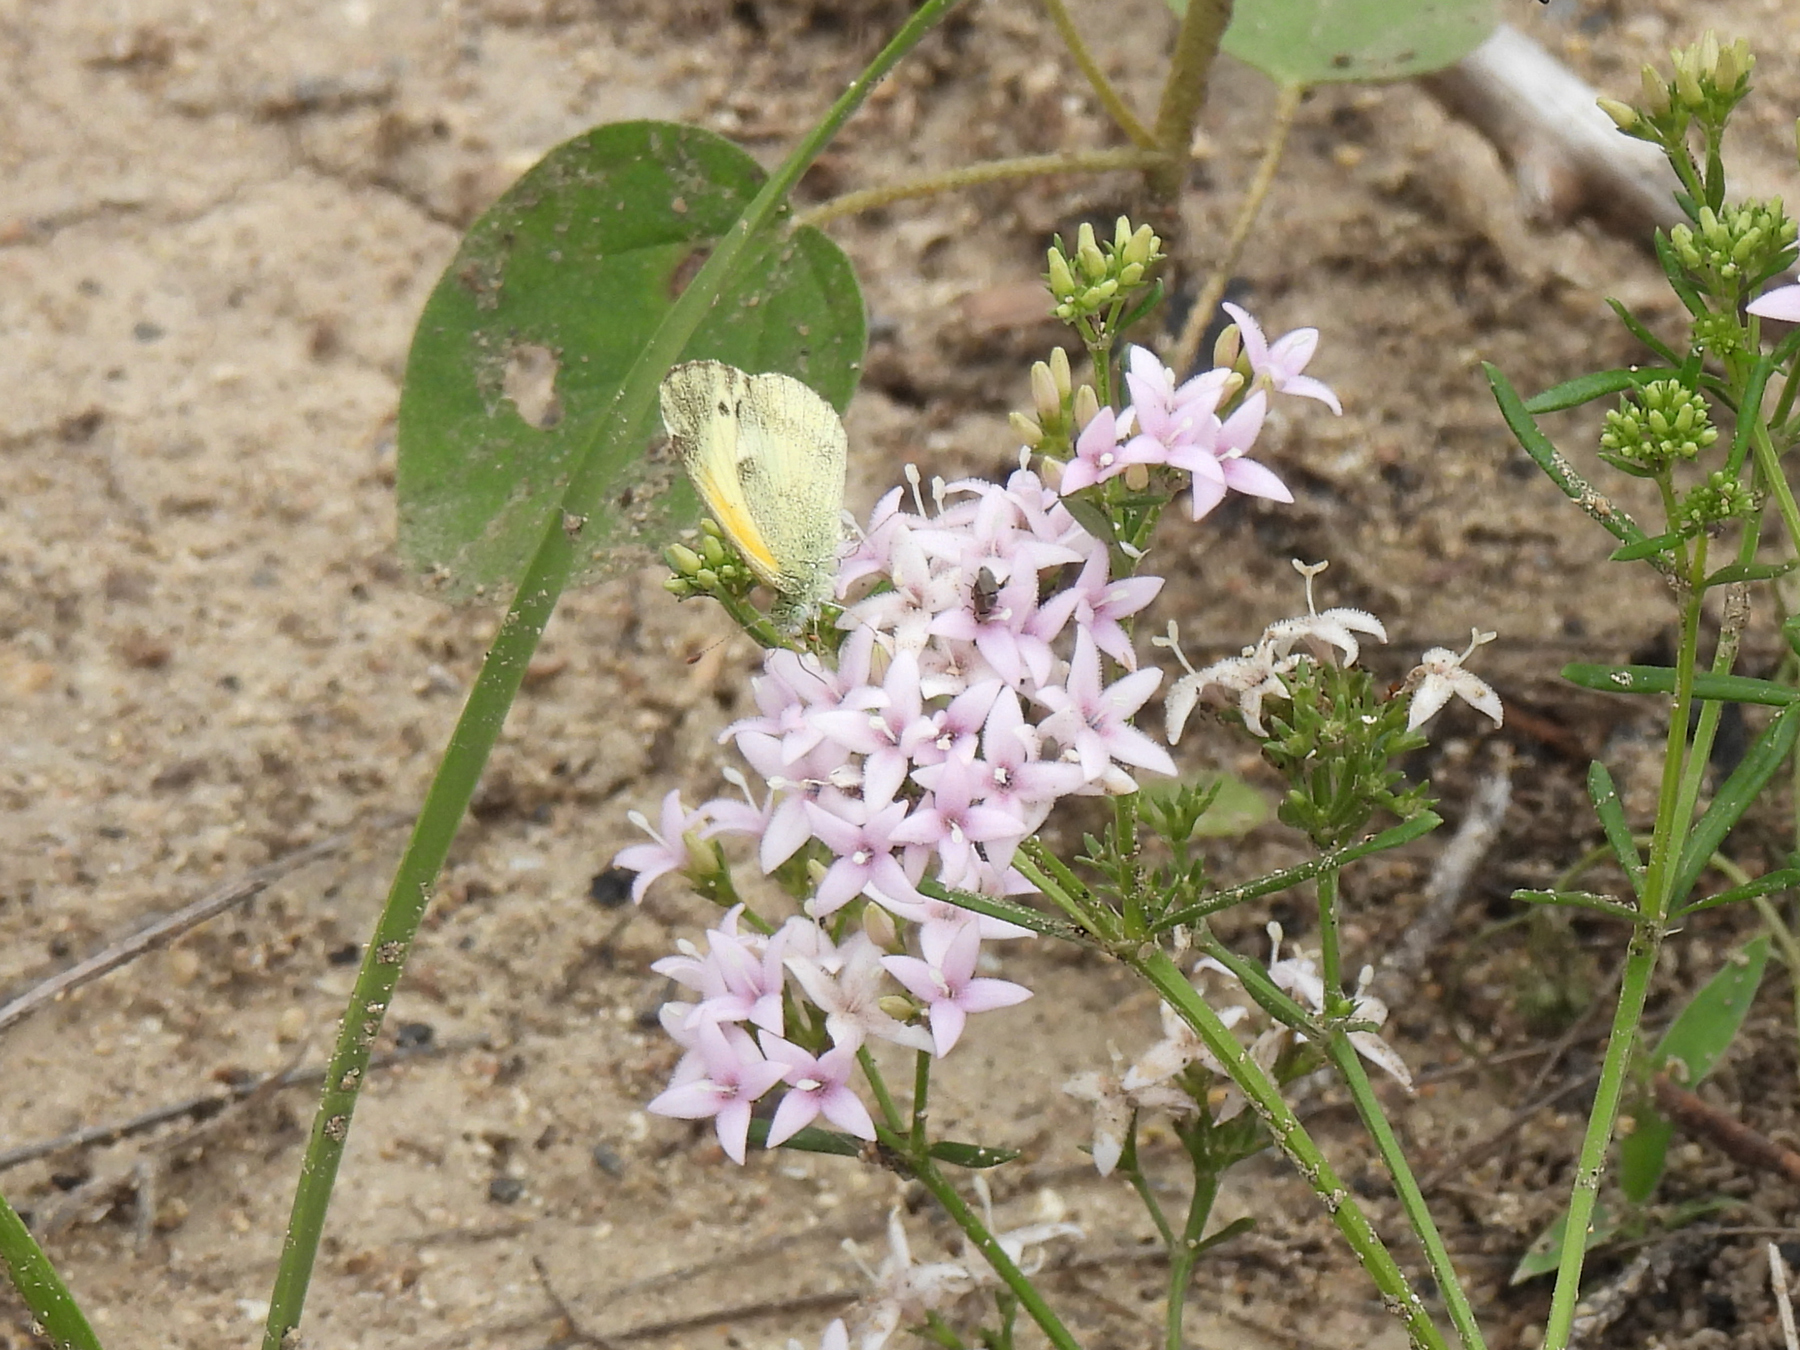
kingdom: Plantae
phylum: Tracheophyta
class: Magnoliopsida
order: Gentianales
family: Rubiaceae
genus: Stenaria
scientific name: Stenaria nigricans
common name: Diamondflowers
